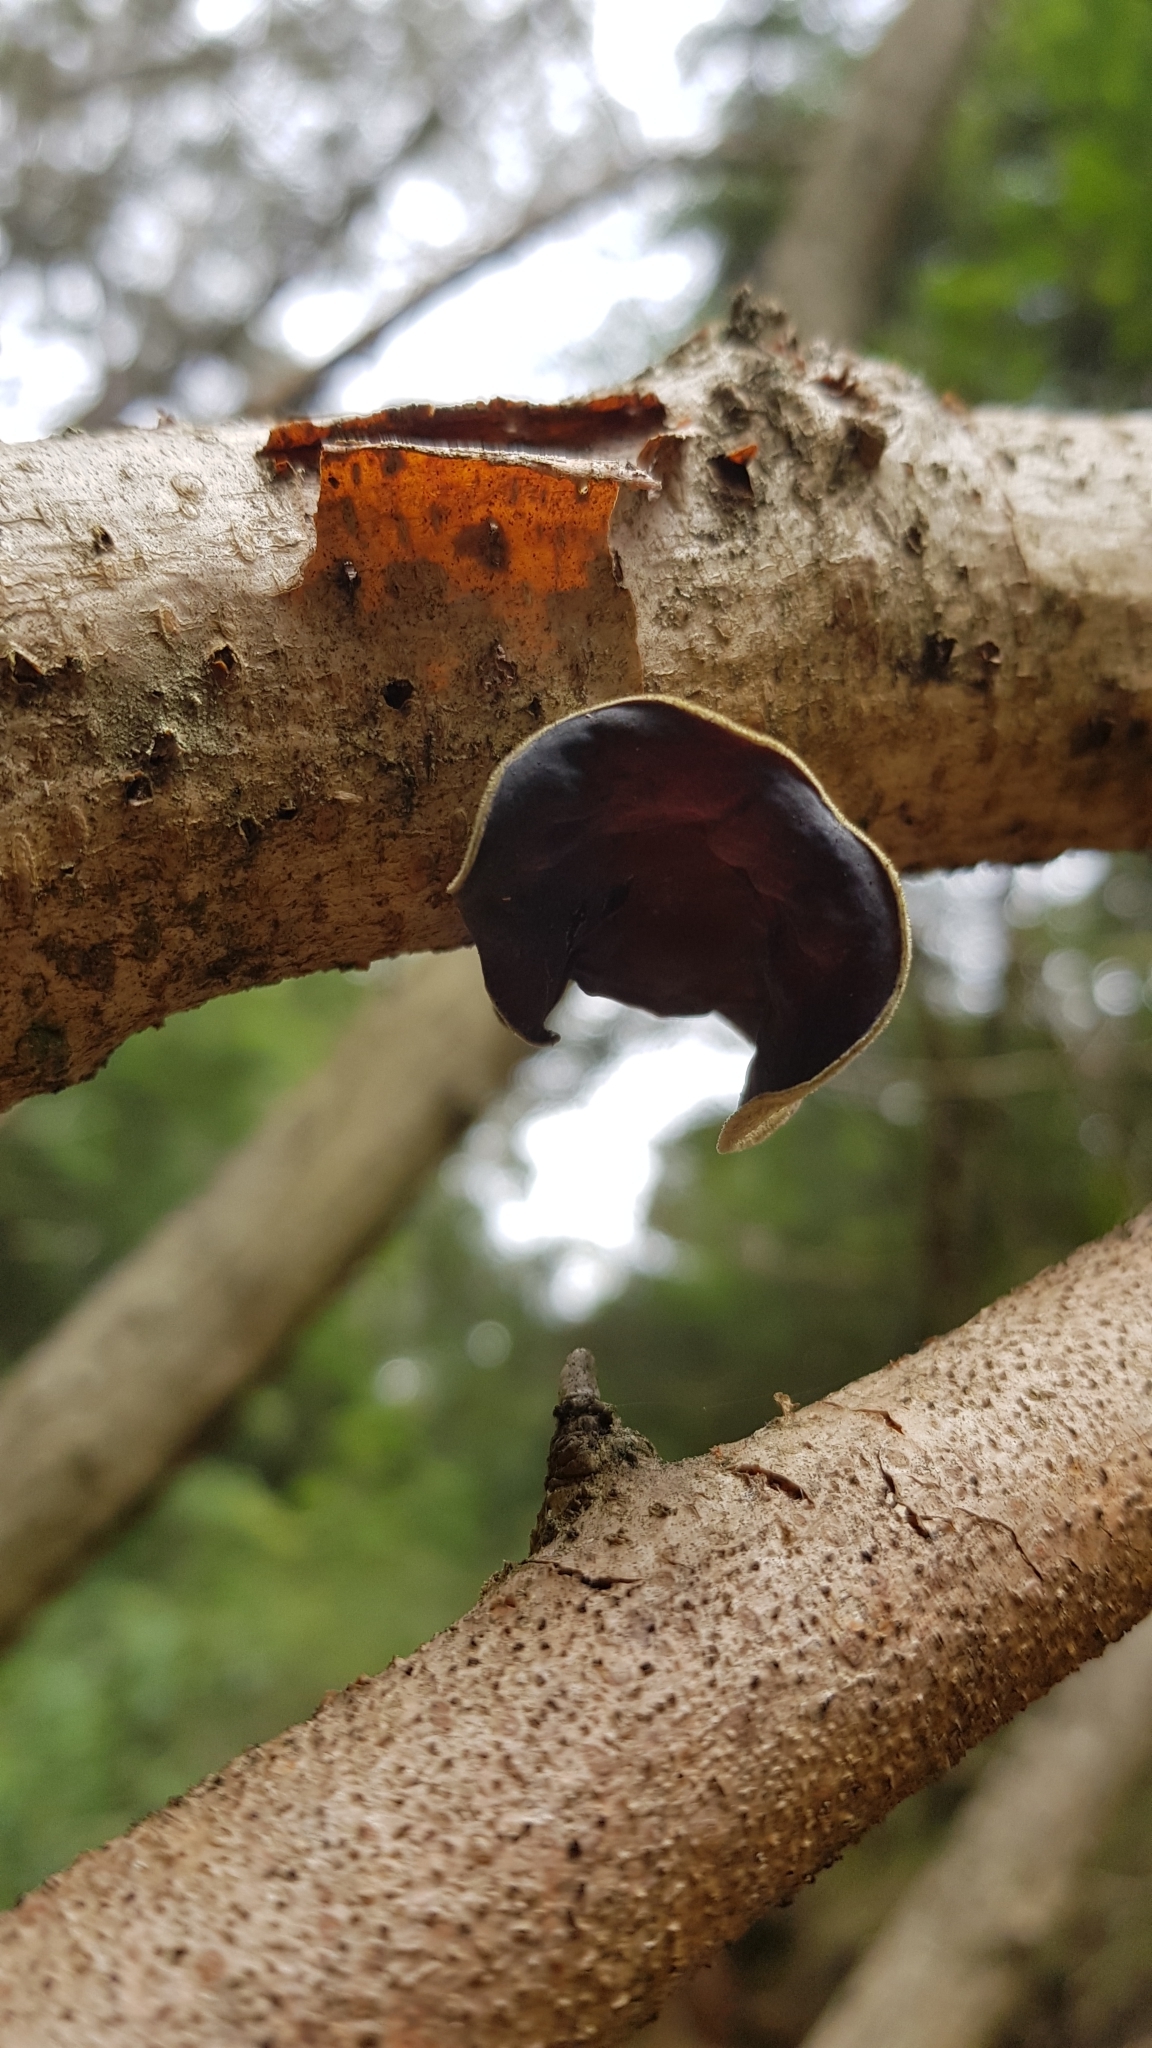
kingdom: Fungi
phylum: Basidiomycota
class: Agaricomycetes
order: Auriculariales
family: Auriculariaceae
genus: Auricularia
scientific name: Auricularia cornea
